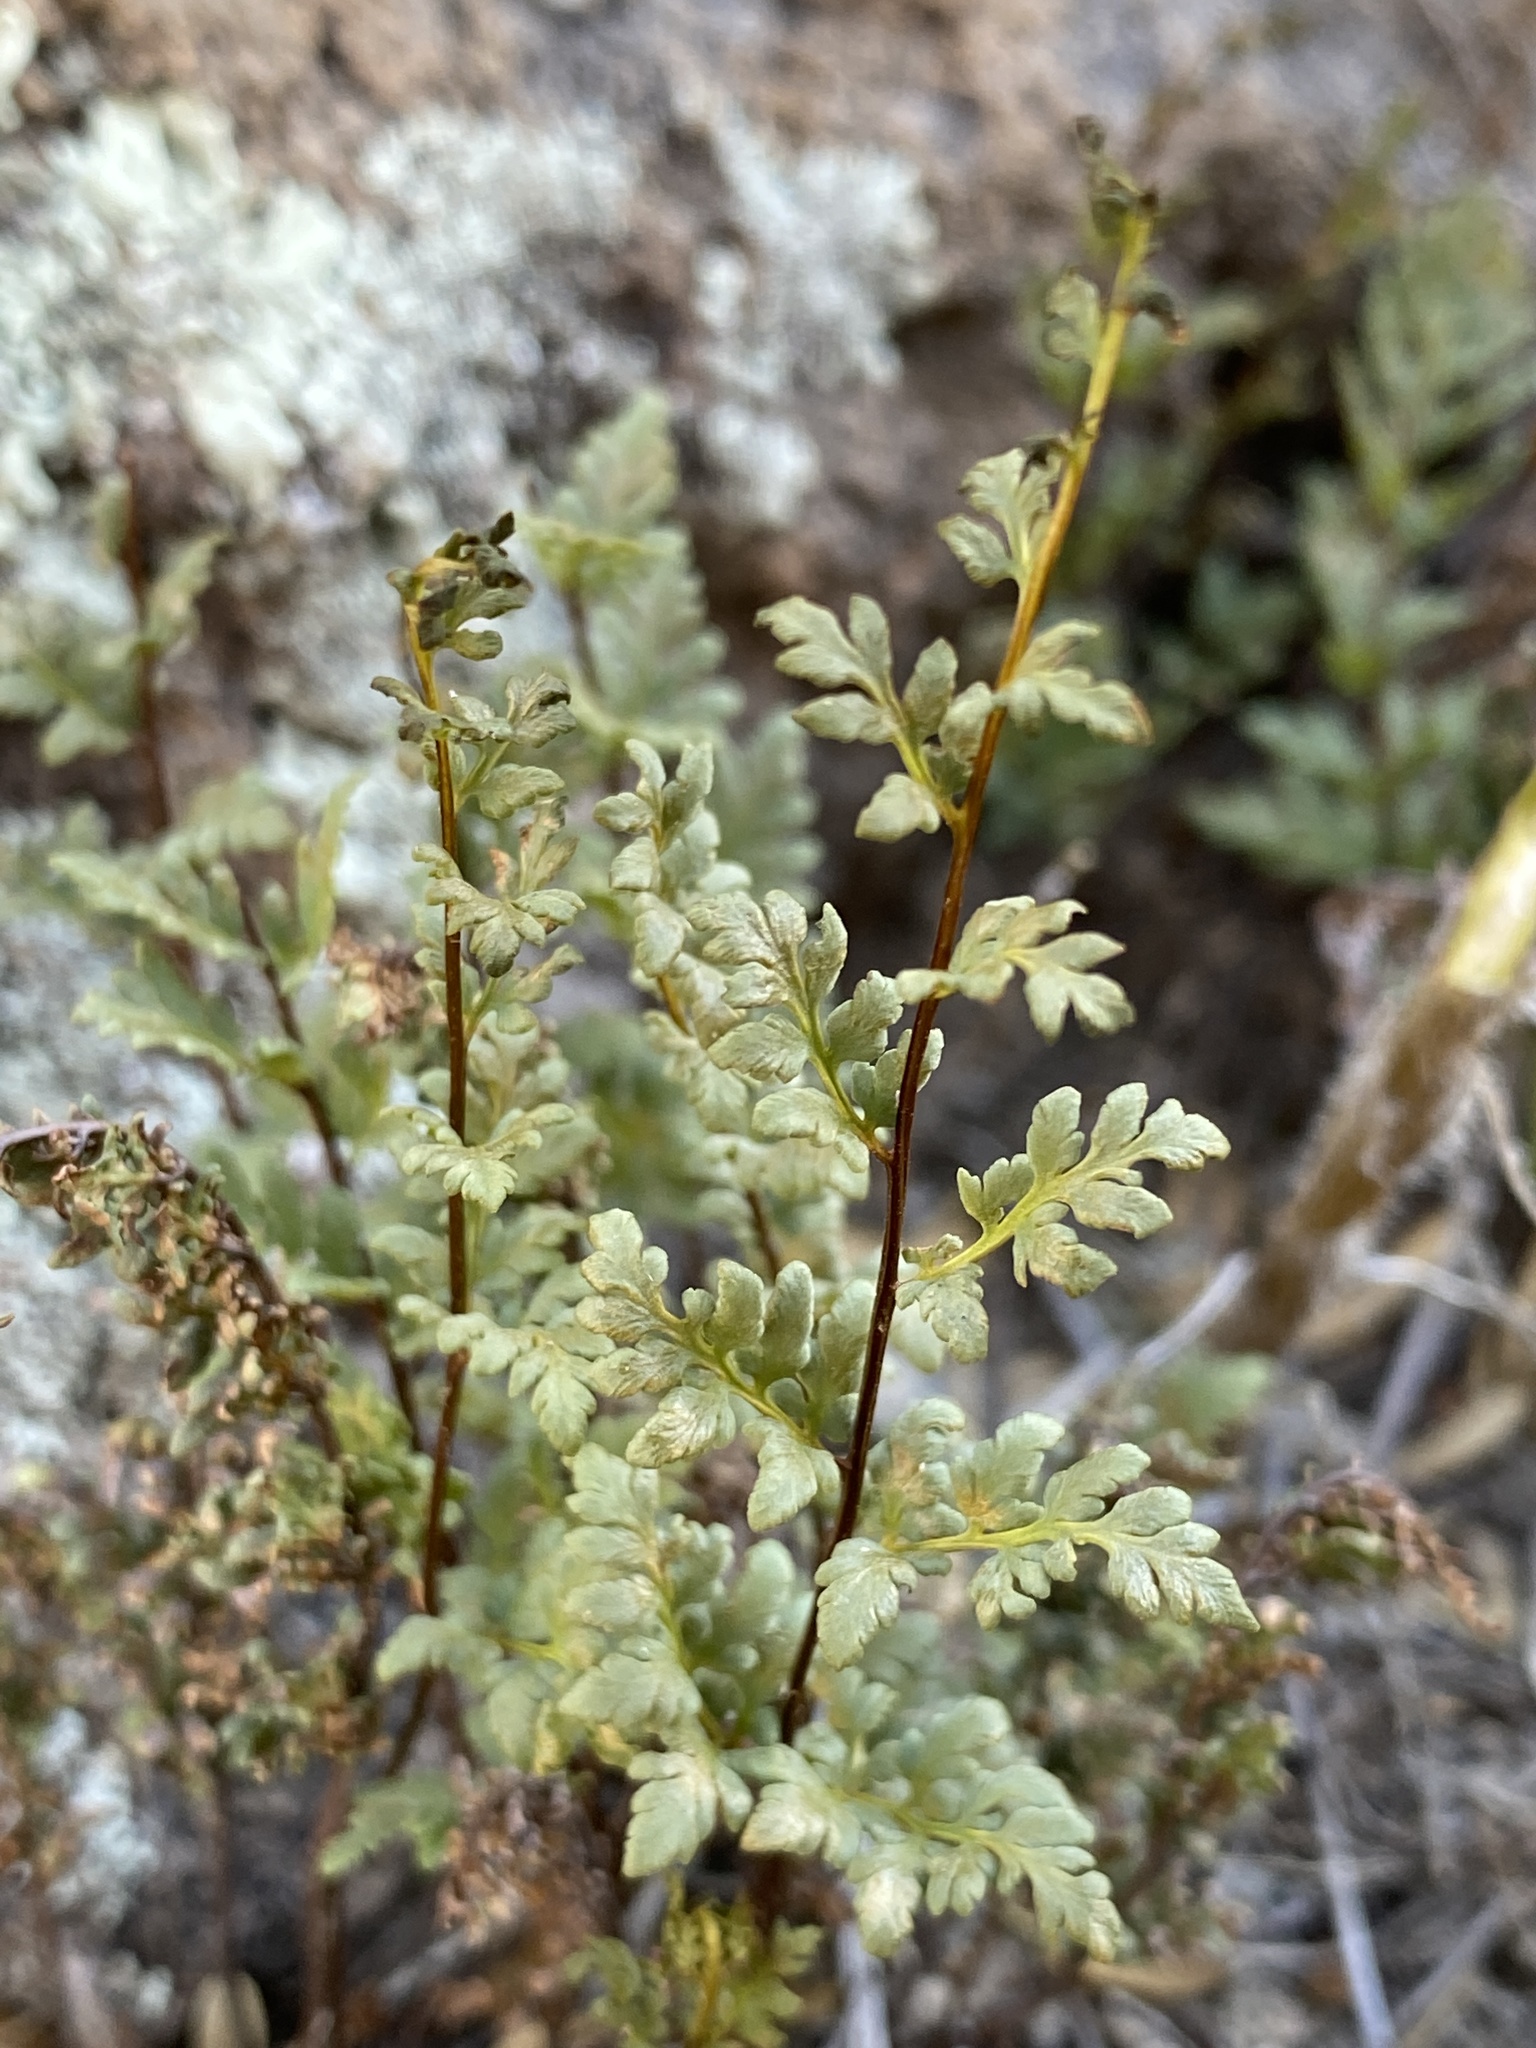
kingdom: Plantae
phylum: Tracheophyta
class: Polypodiopsida
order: Polypodiales
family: Pteridaceae
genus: Myriopteris
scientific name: Myriopteris wrightii
